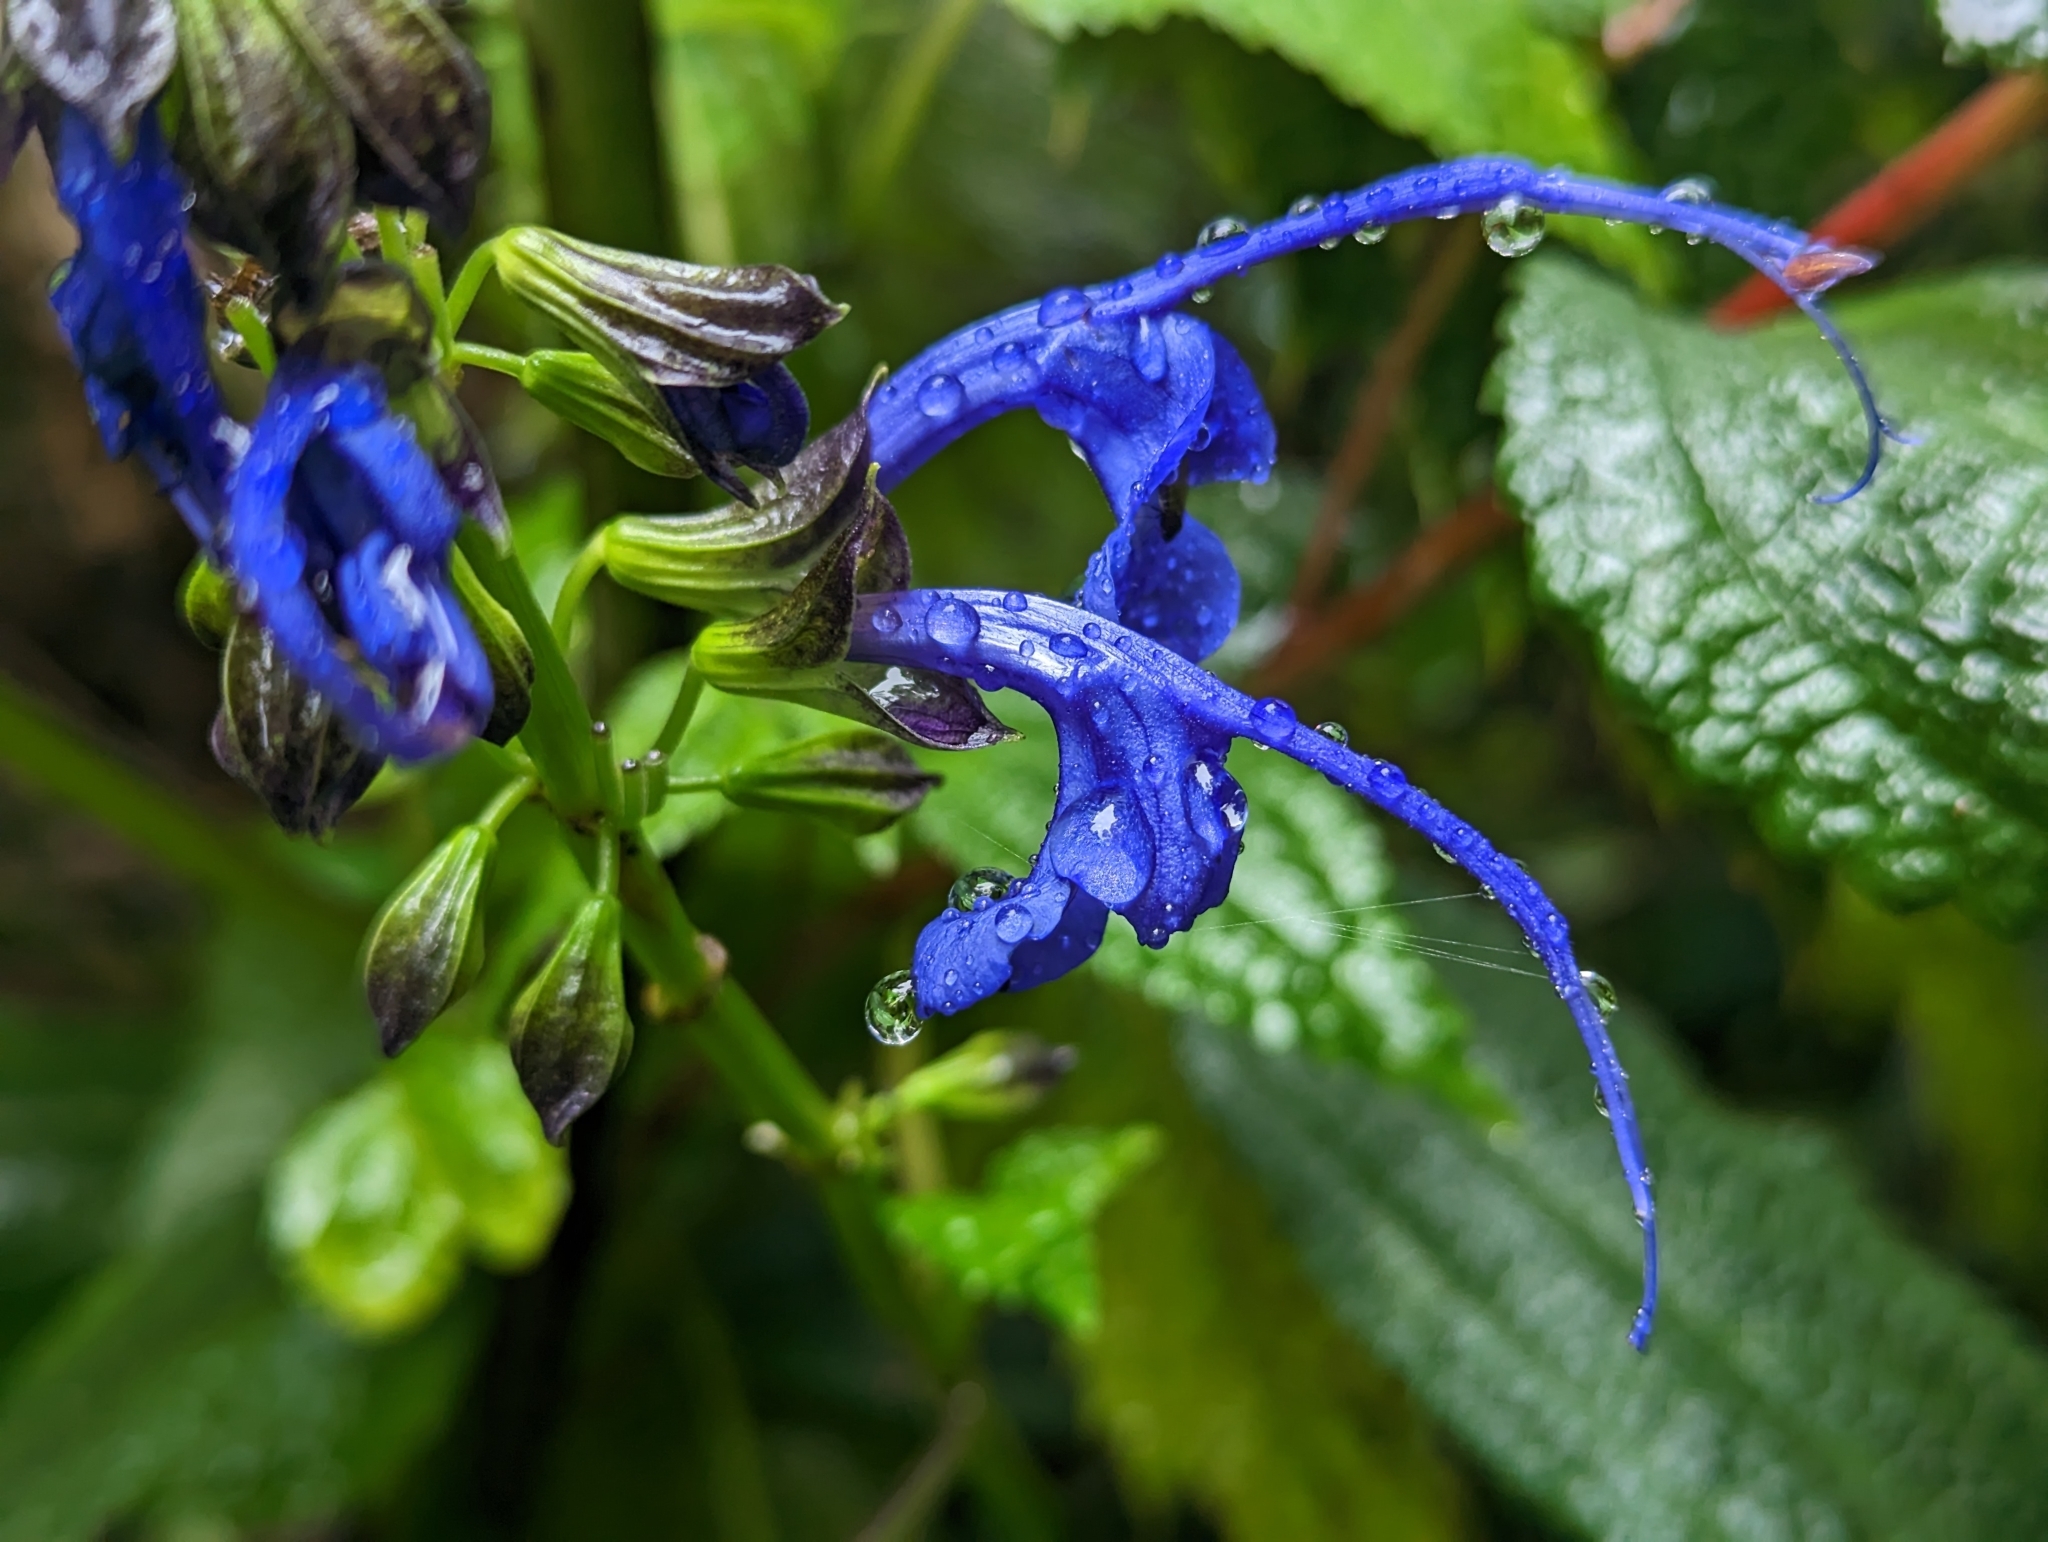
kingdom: Plantae
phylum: Tracheophyta
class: Magnoliopsida
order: Lamiales
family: Lamiaceae
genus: Salvia
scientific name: Salvia pichinchensis
